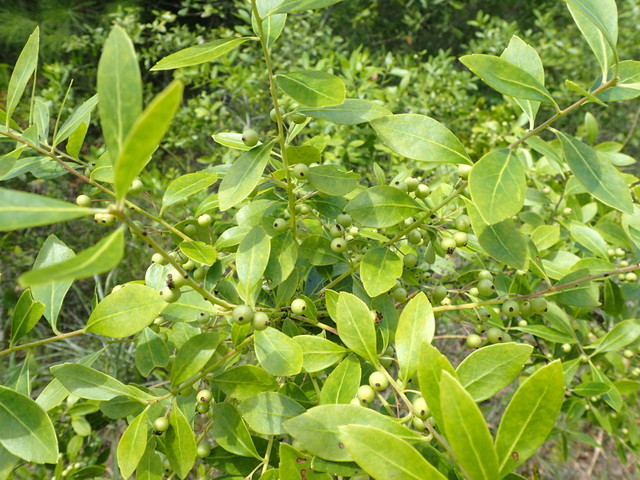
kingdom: Plantae
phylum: Tracheophyta
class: Magnoliopsida
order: Aquifoliales
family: Aquifoliaceae
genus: Ilex
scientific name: Ilex glabra
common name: Bitter gallberry
